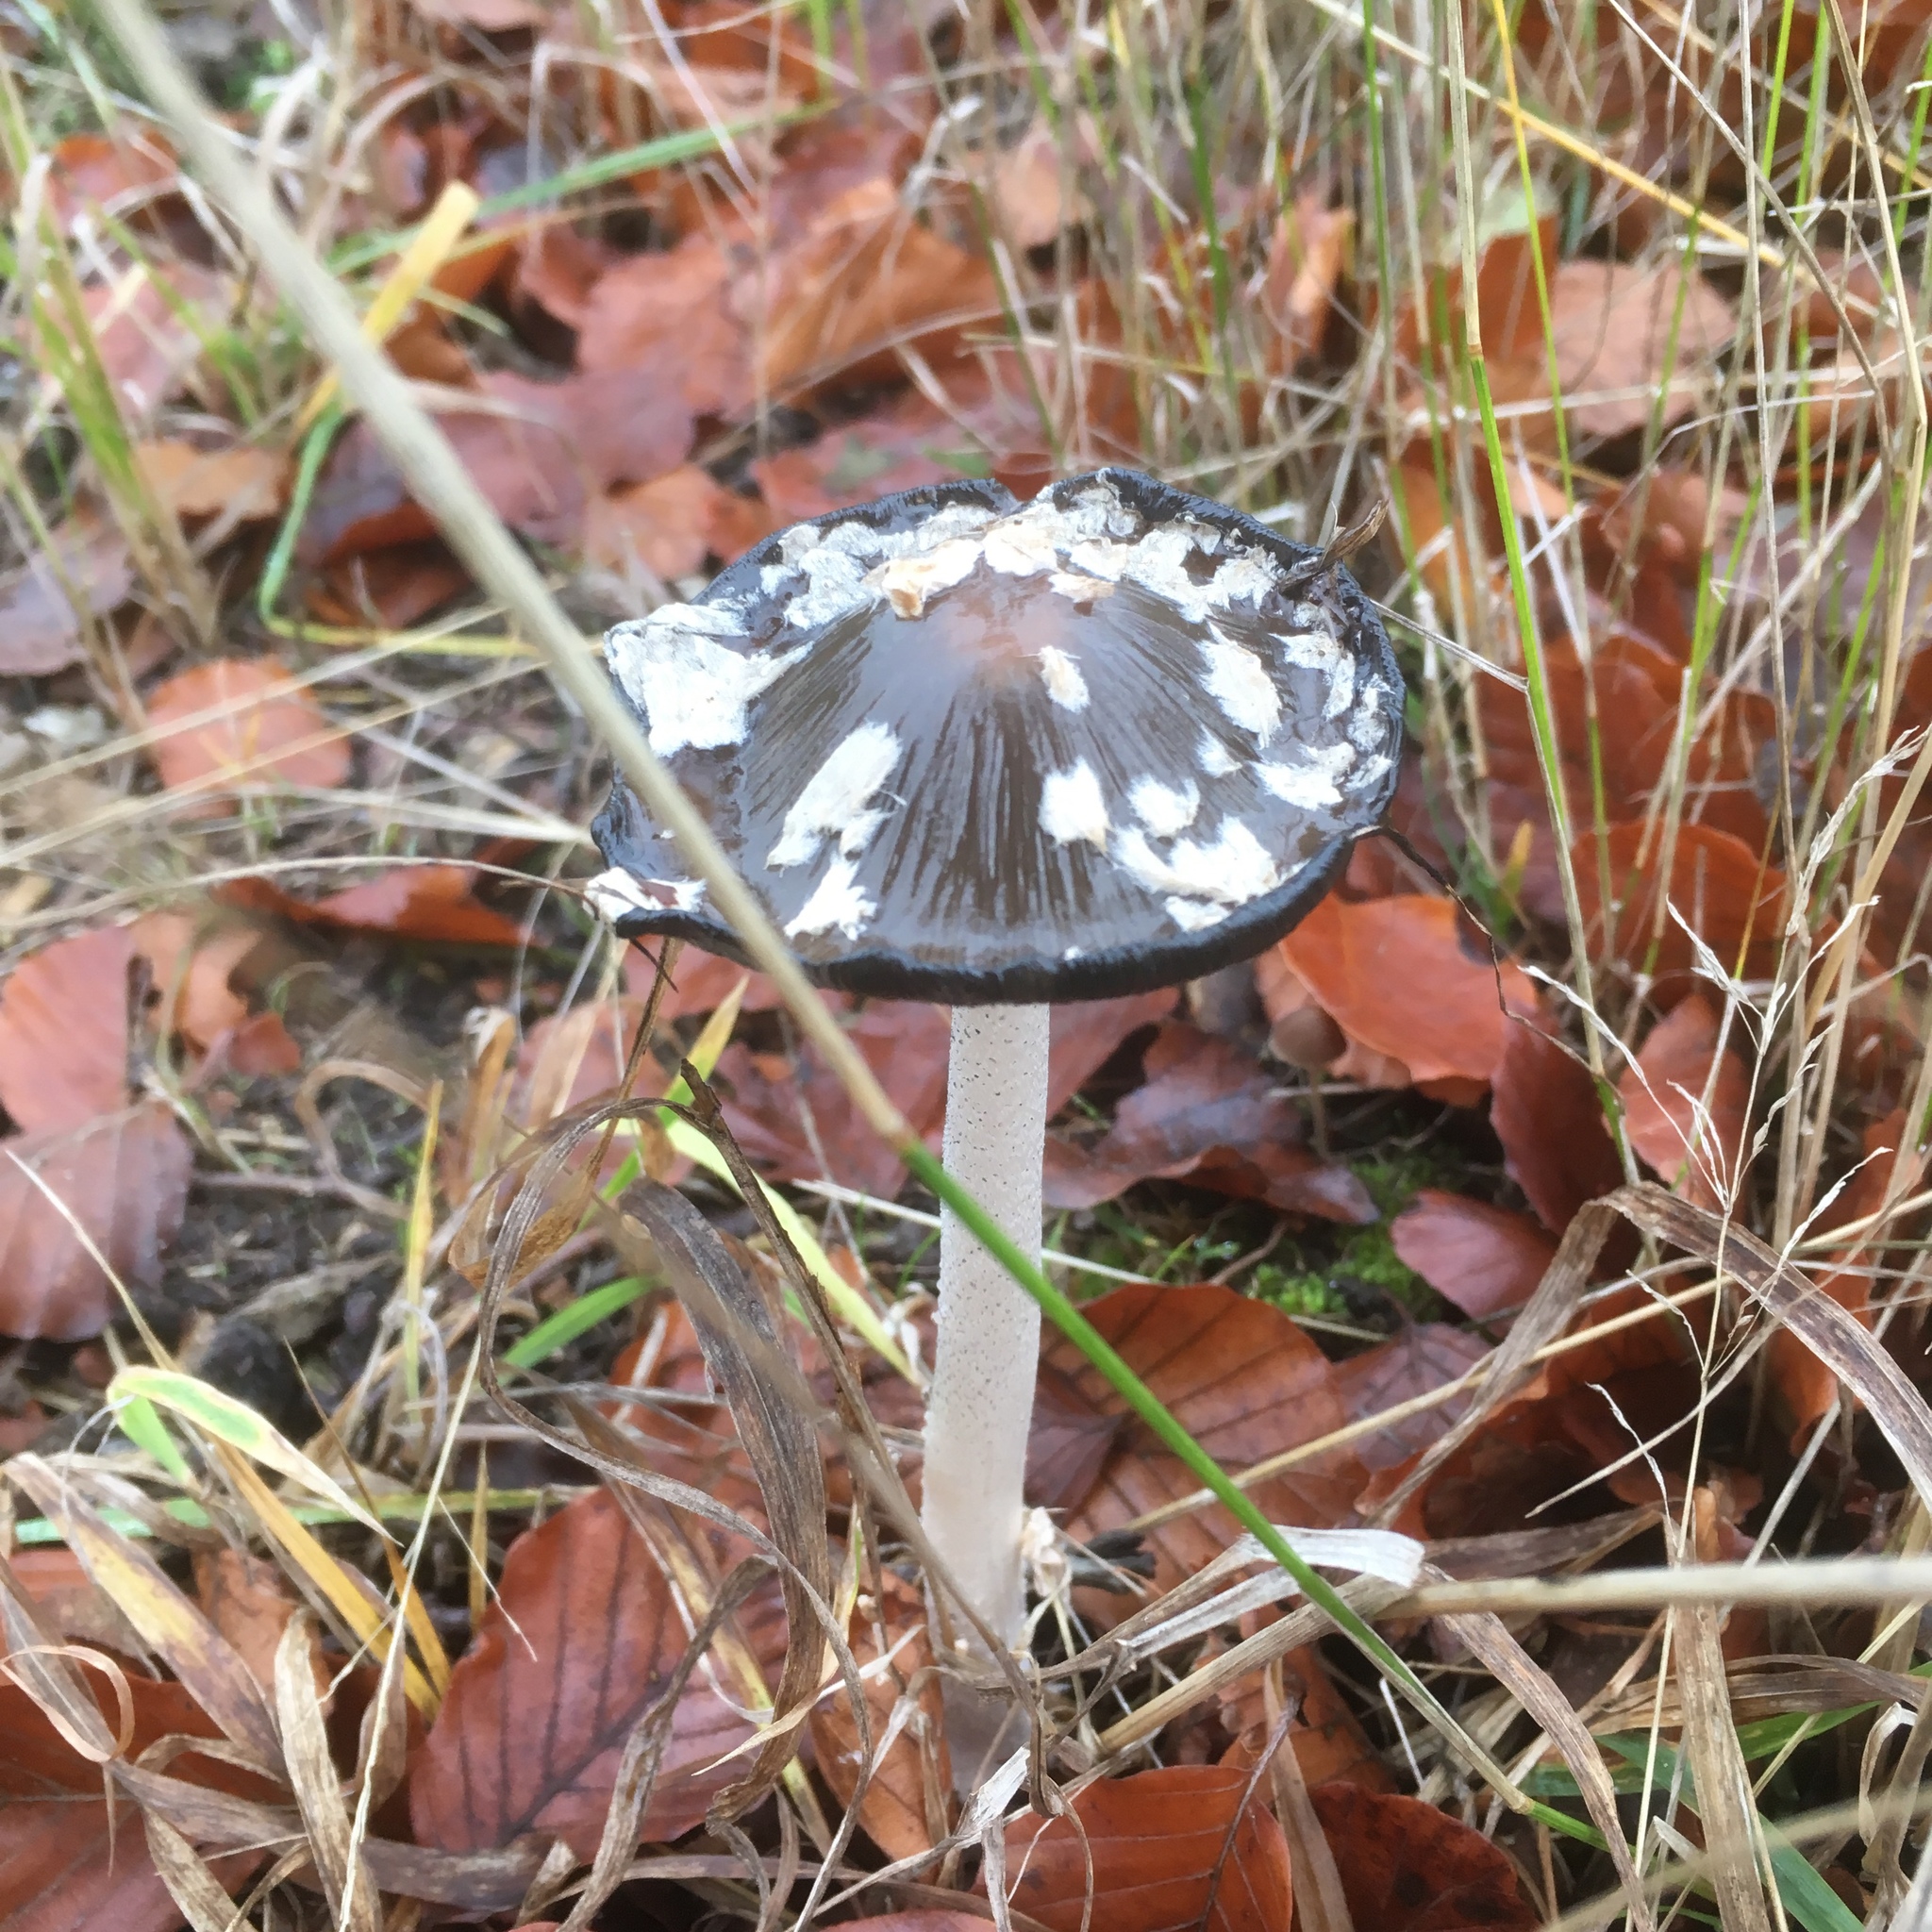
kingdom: Fungi
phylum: Basidiomycota
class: Agaricomycetes
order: Agaricales
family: Psathyrellaceae
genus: Coprinopsis
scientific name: Coprinopsis picacea
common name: Magpie inkcap
